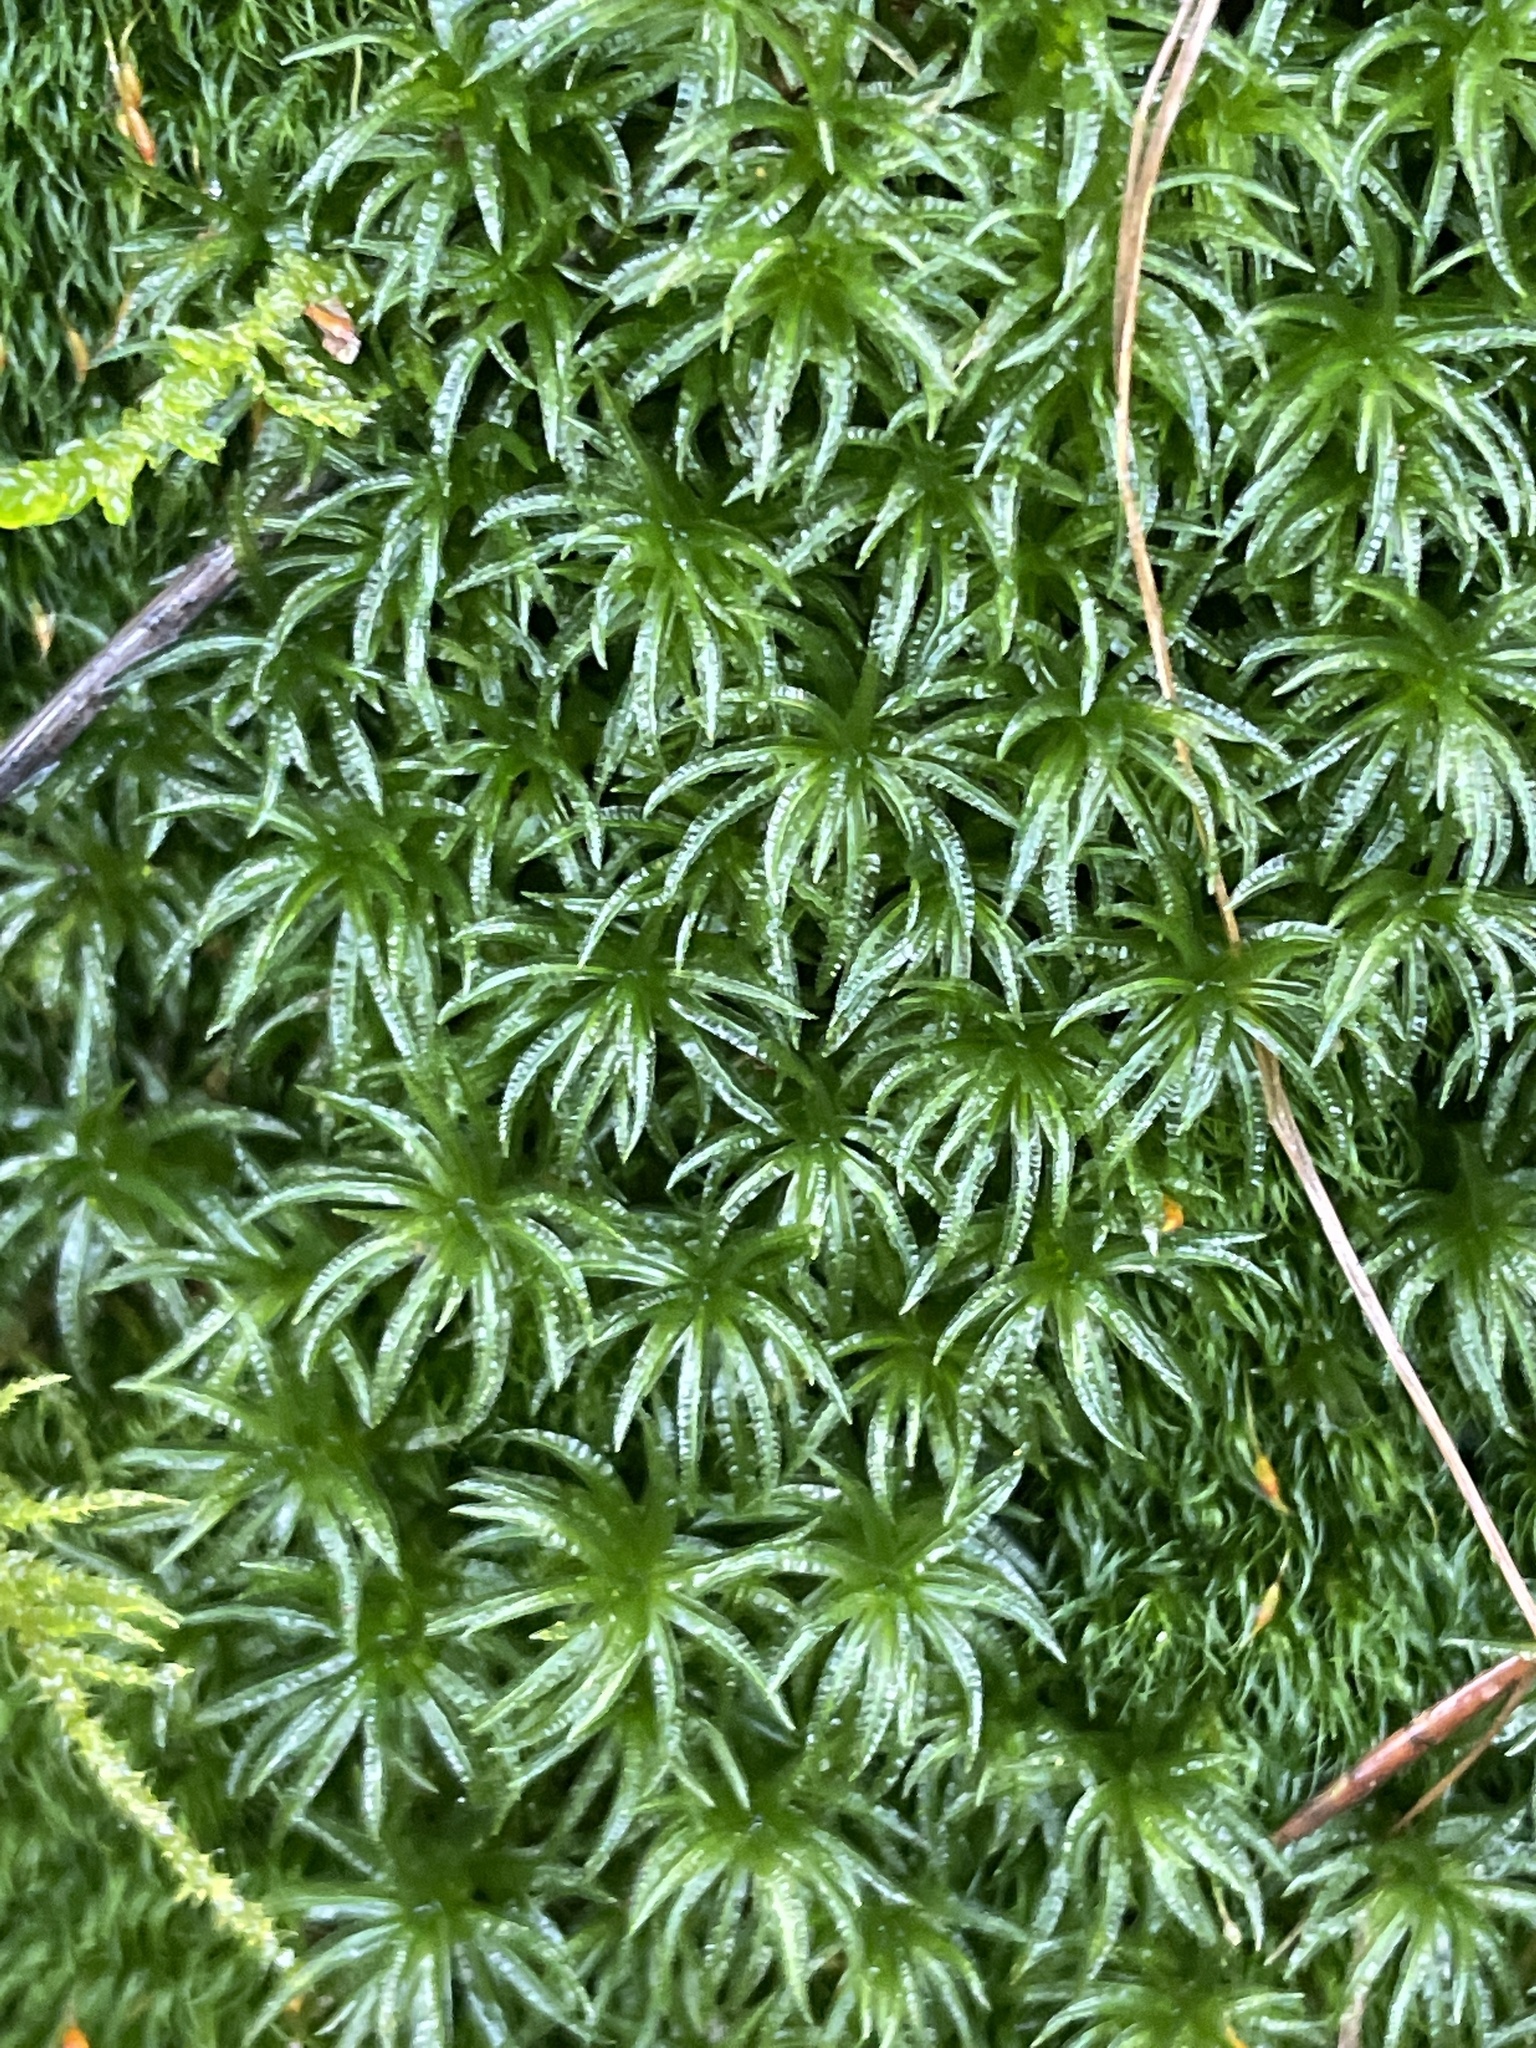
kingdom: Plantae
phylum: Bryophyta
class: Polytrichopsida
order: Polytrichales
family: Polytrichaceae
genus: Atrichum
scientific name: Atrichum undulatum
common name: Common smoothcap
